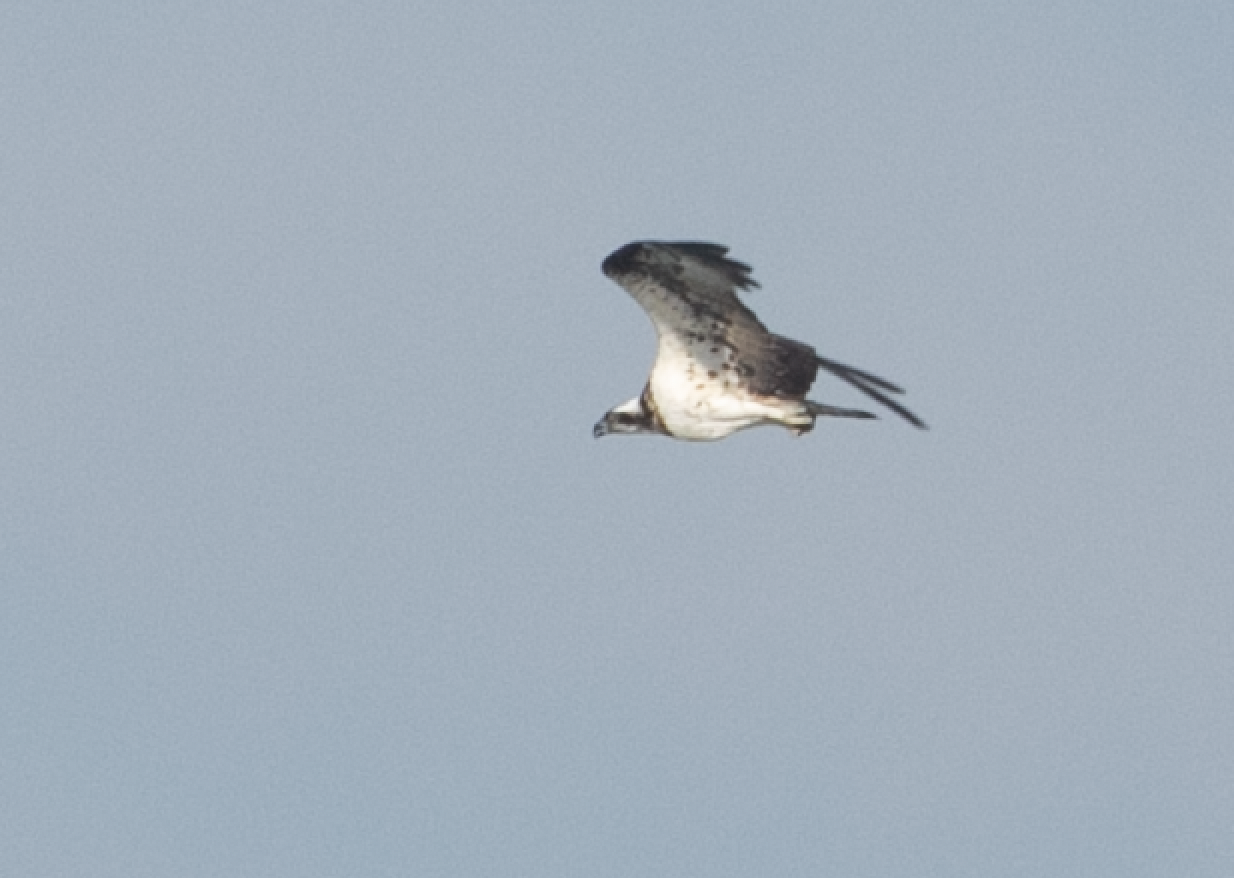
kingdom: Animalia
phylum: Chordata
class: Aves
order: Accipitriformes
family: Pandionidae
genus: Pandion
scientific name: Pandion haliaetus
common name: Osprey
